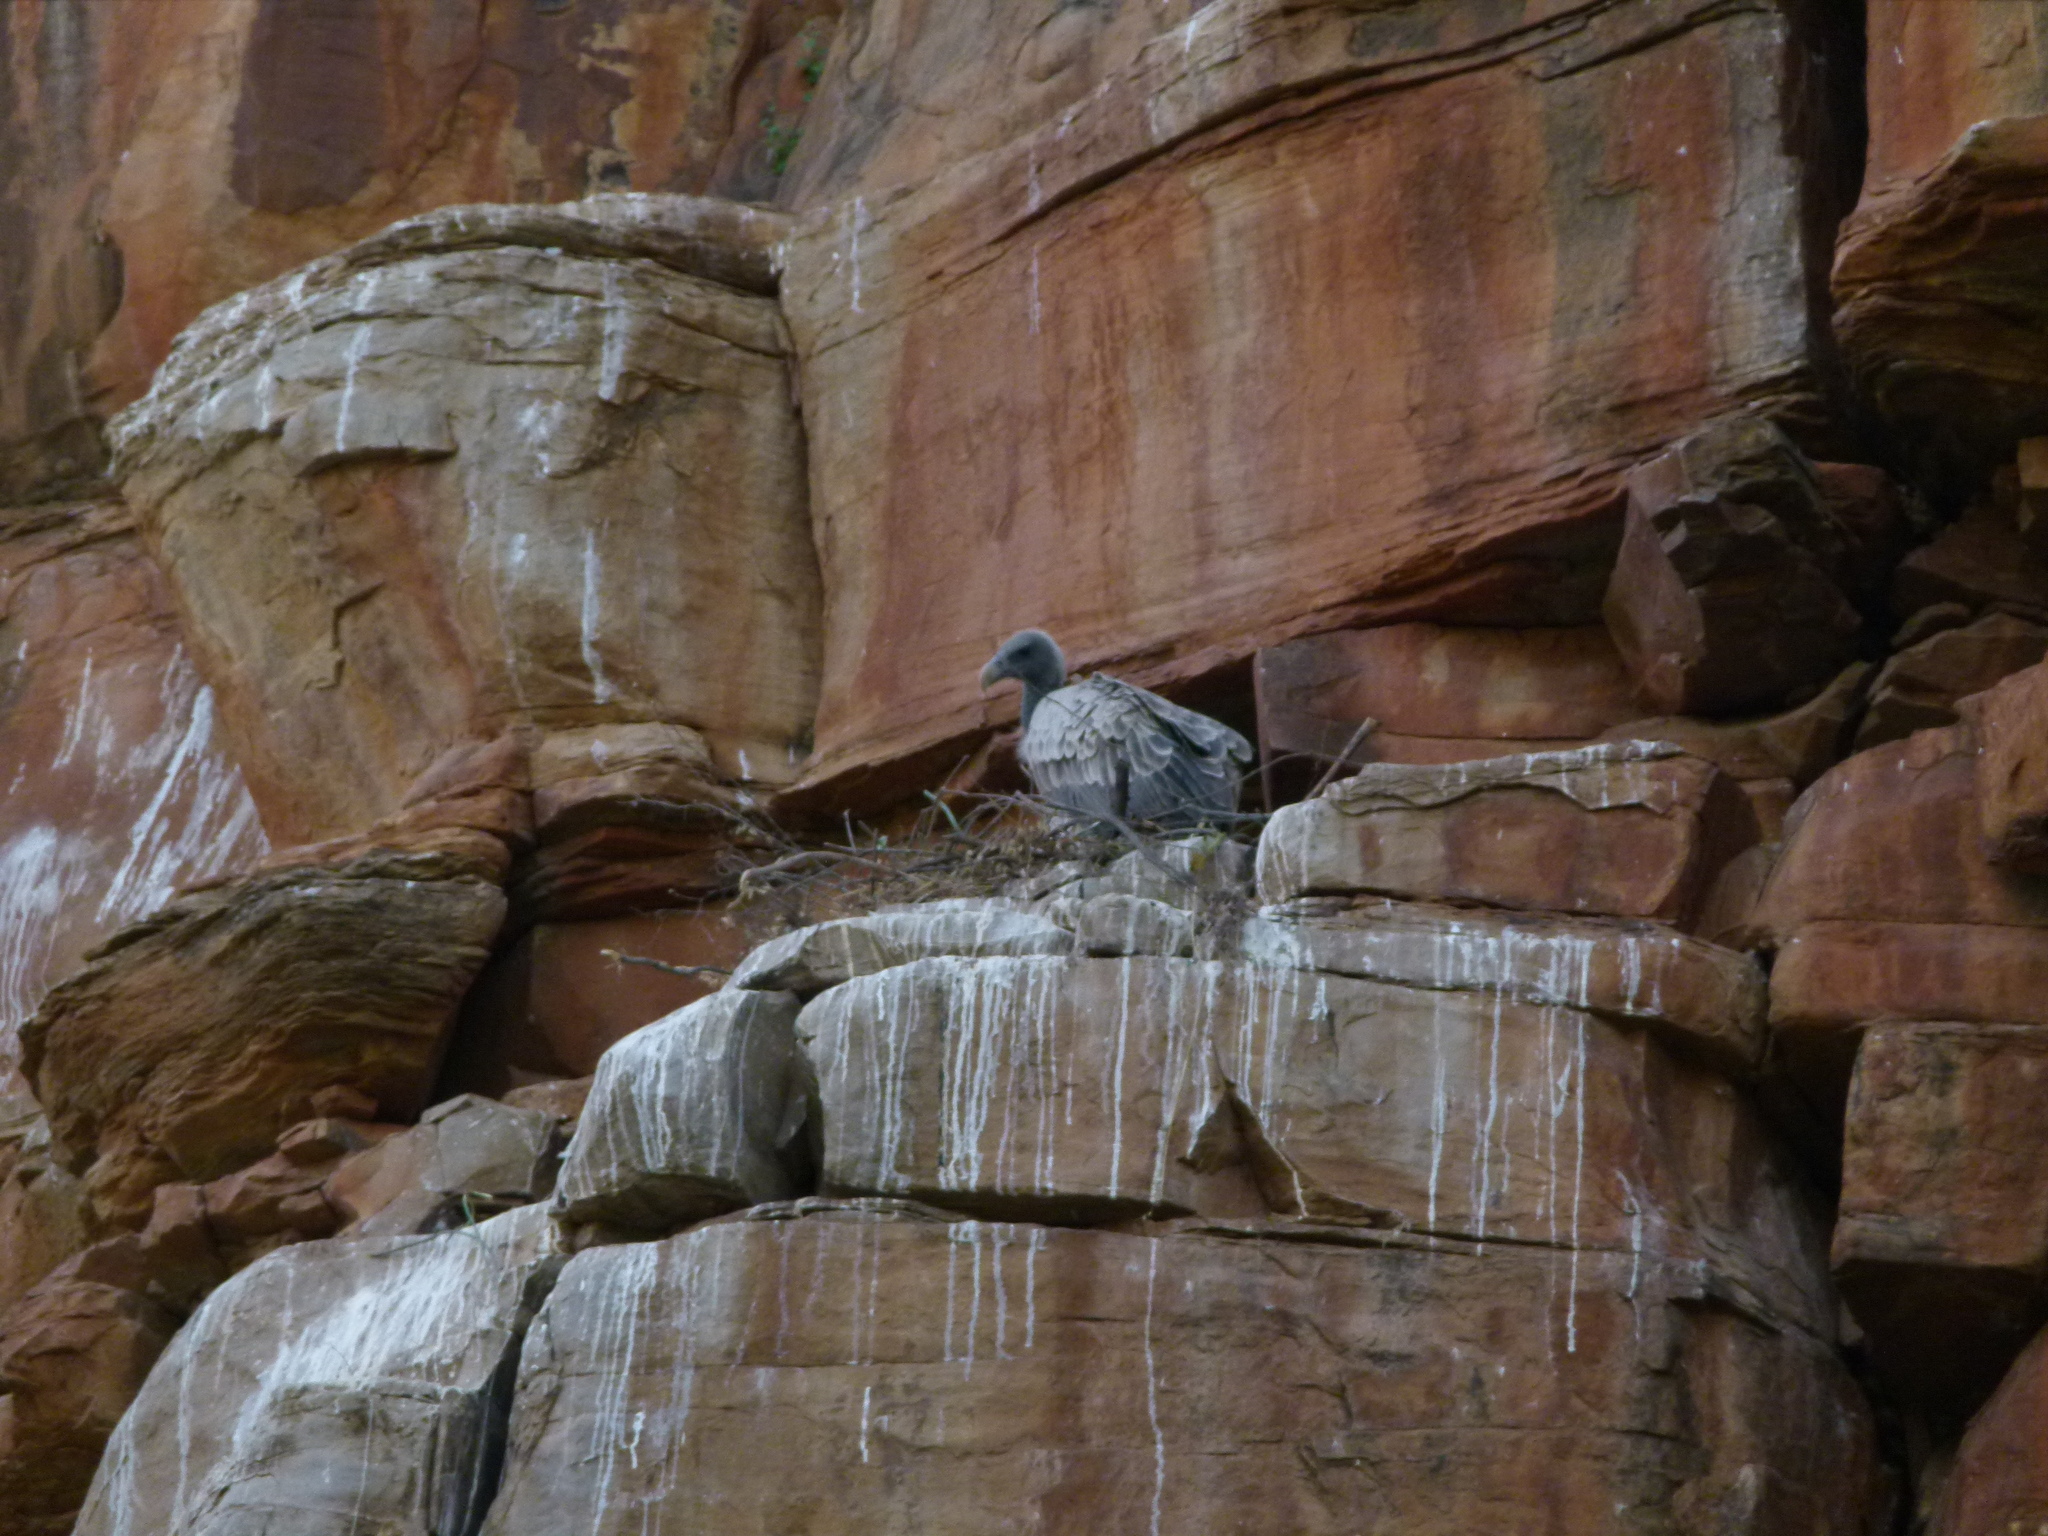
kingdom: Animalia
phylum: Chordata
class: Aves
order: Accipitriformes
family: Accipitridae
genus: Gyps
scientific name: Gyps indicus
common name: Indian vulture
